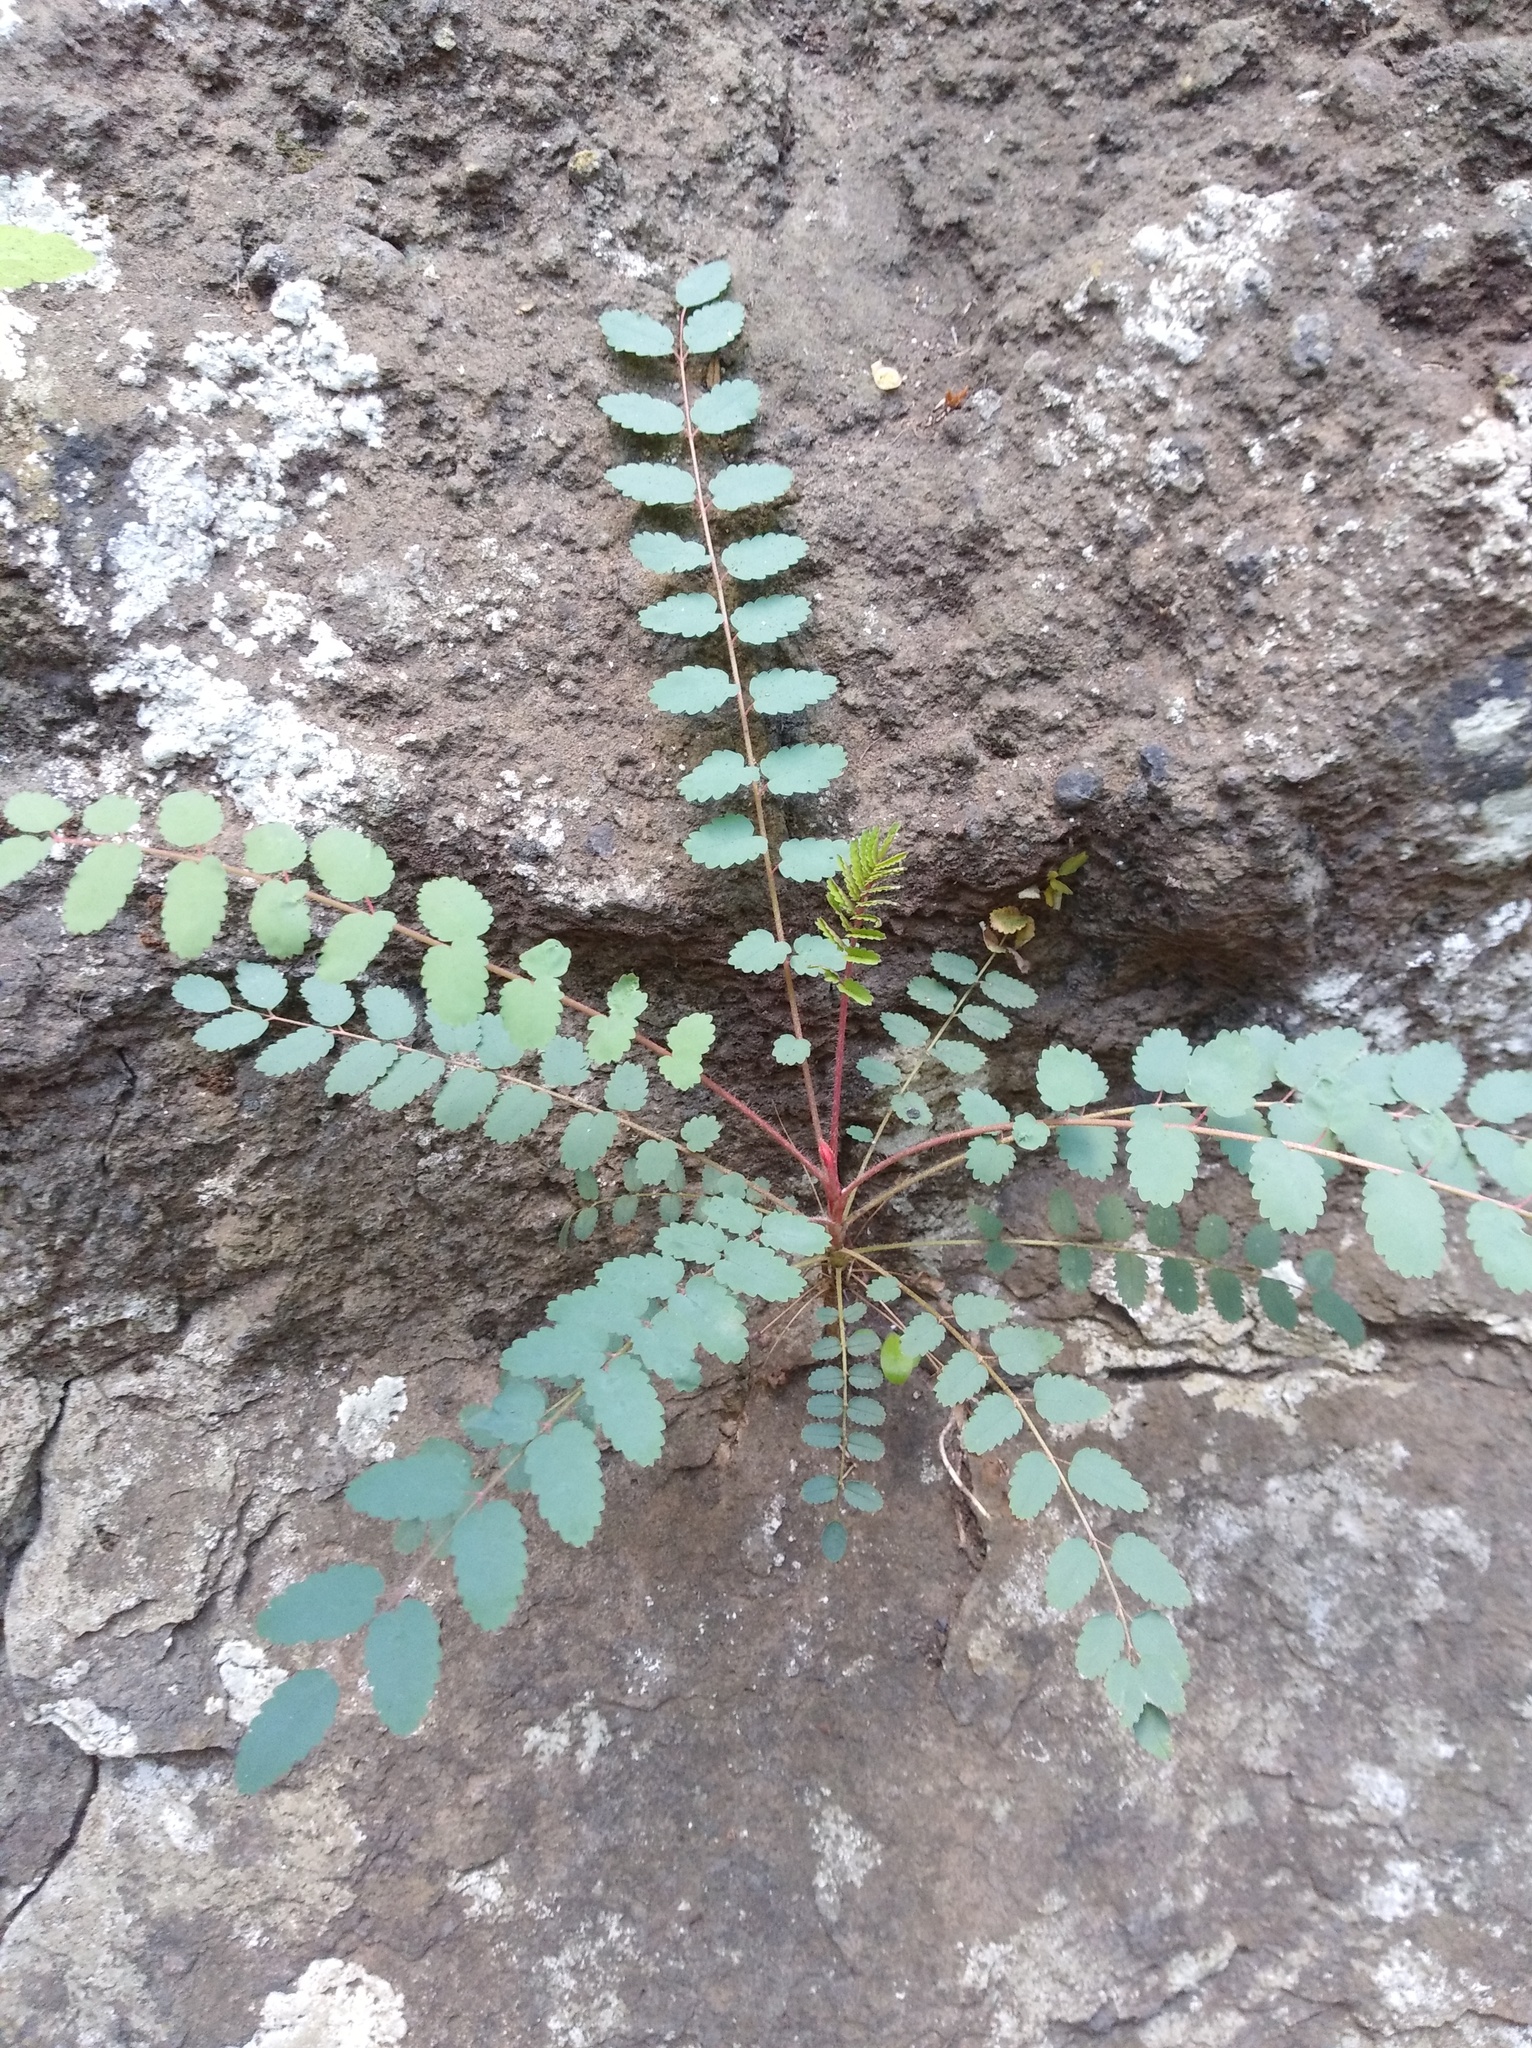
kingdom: Plantae
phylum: Tracheophyta
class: Magnoliopsida
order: Rosales
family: Rosaceae
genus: Marcetella
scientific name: Marcetella moquiniana
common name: Burnet tree
